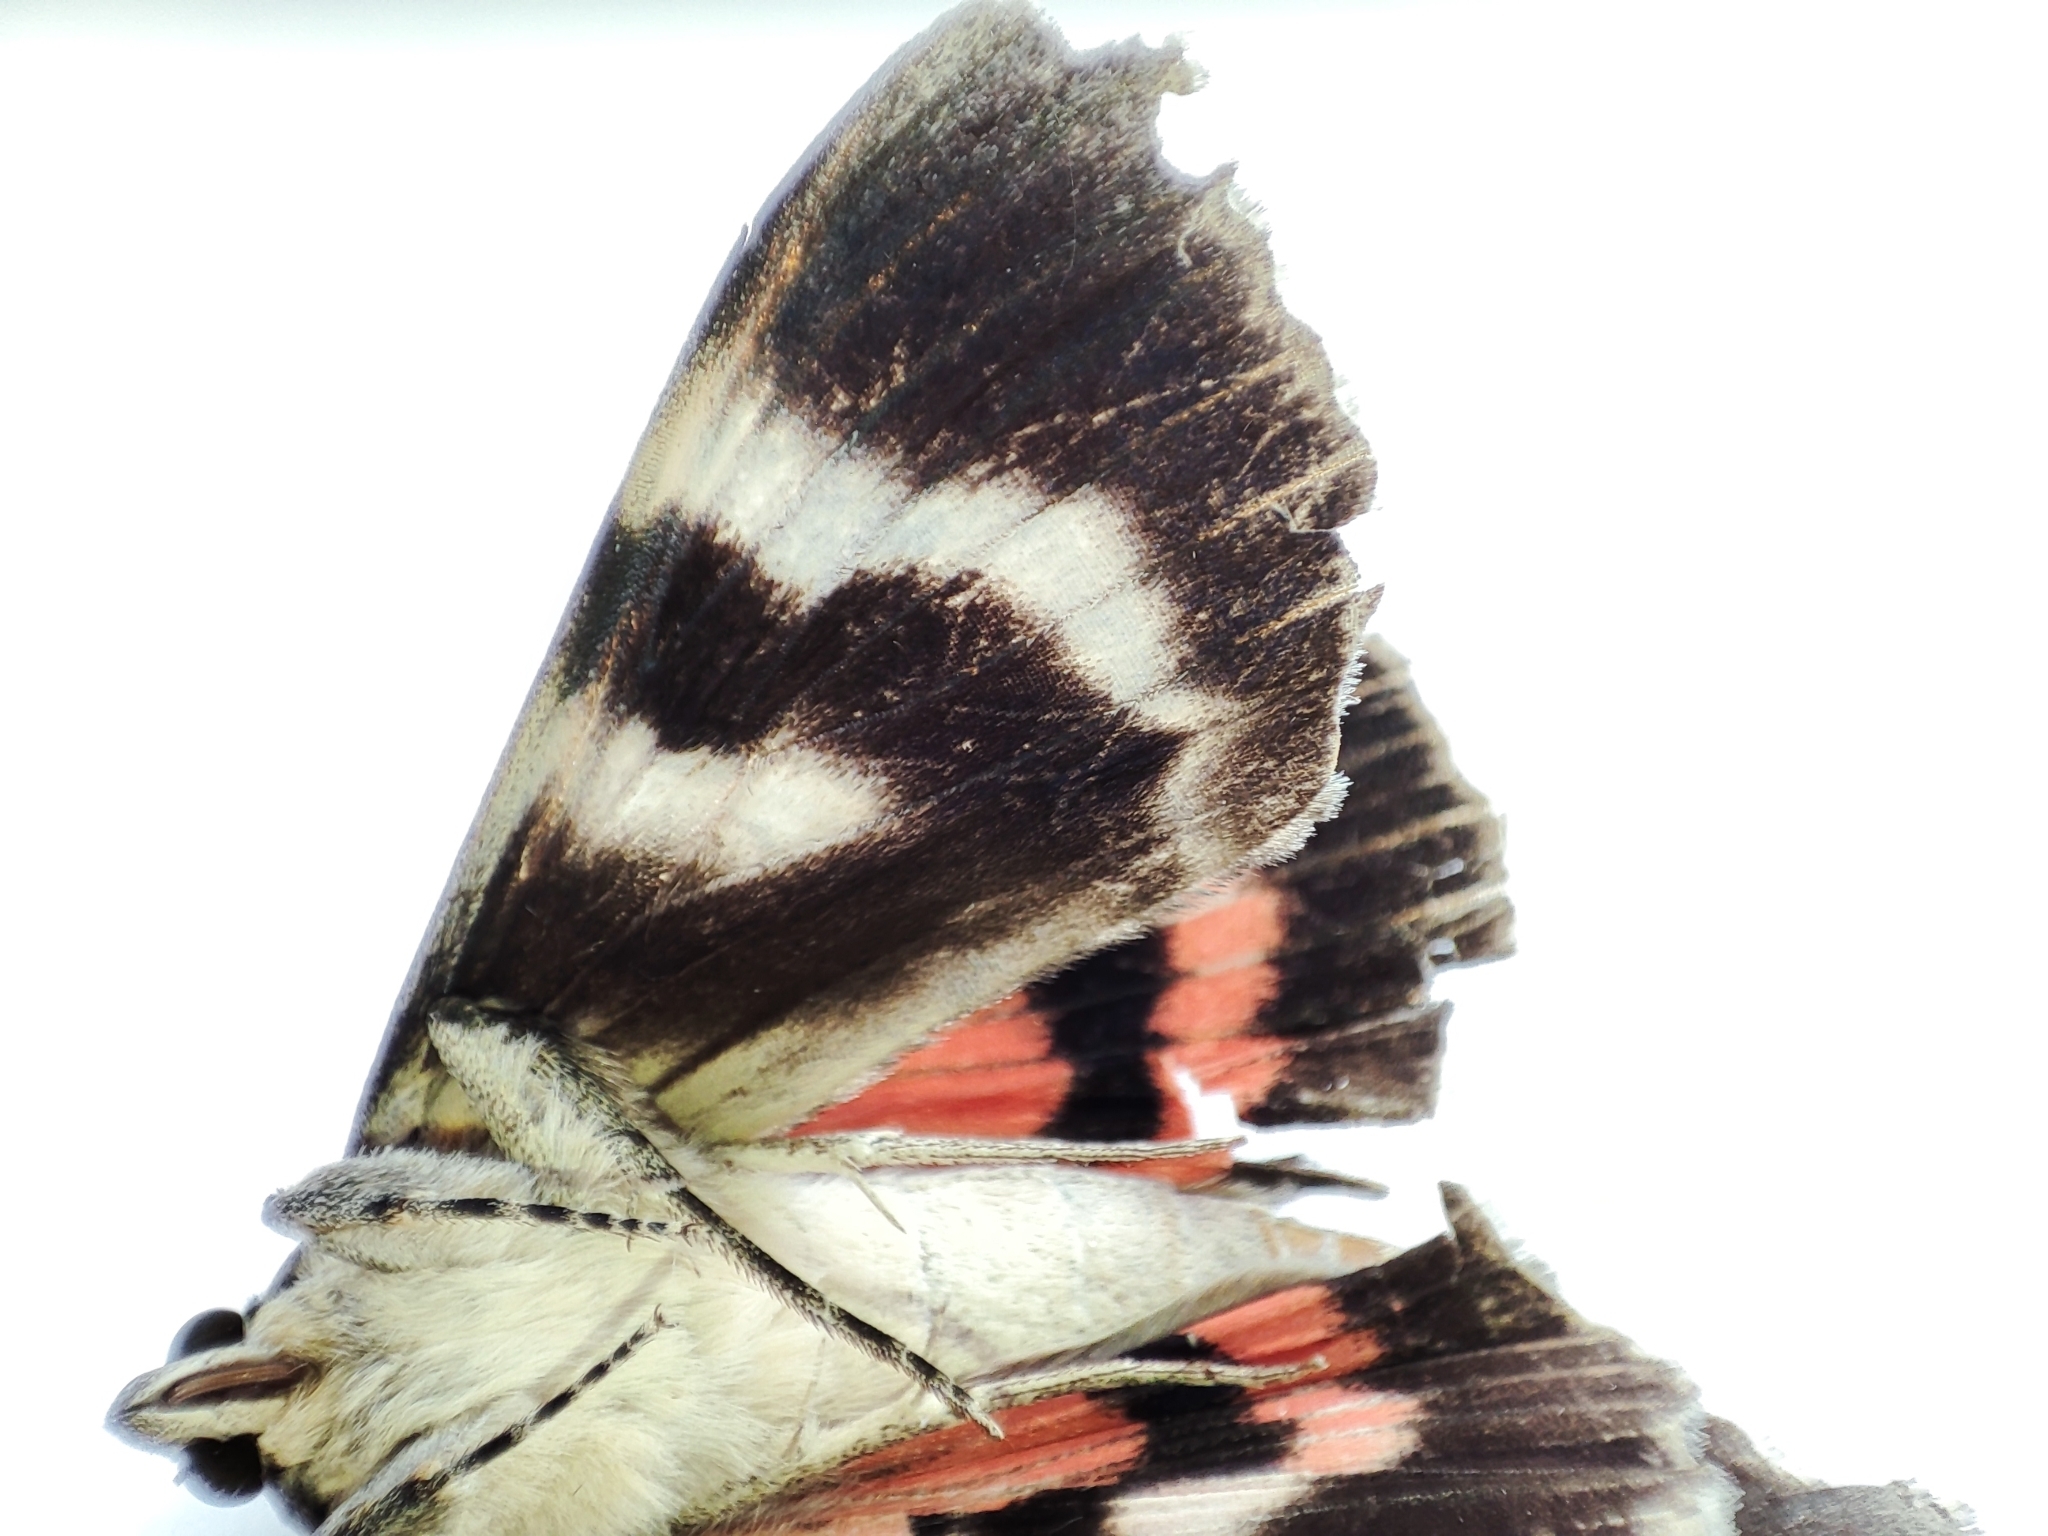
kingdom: Animalia
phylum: Arthropoda
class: Insecta
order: Lepidoptera
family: Erebidae
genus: Catocala
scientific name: Catocala nupta
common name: Red underwing
